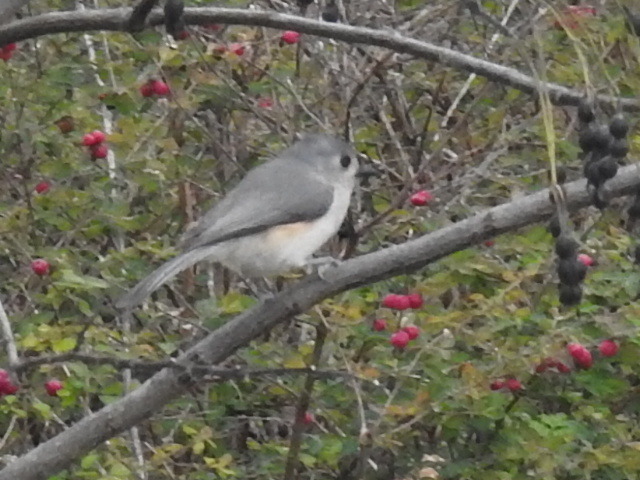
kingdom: Animalia
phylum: Chordata
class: Aves
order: Passeriformes
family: Paridae
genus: Baeolophus
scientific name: Baeolophus bicolor
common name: Tufted titmouse
